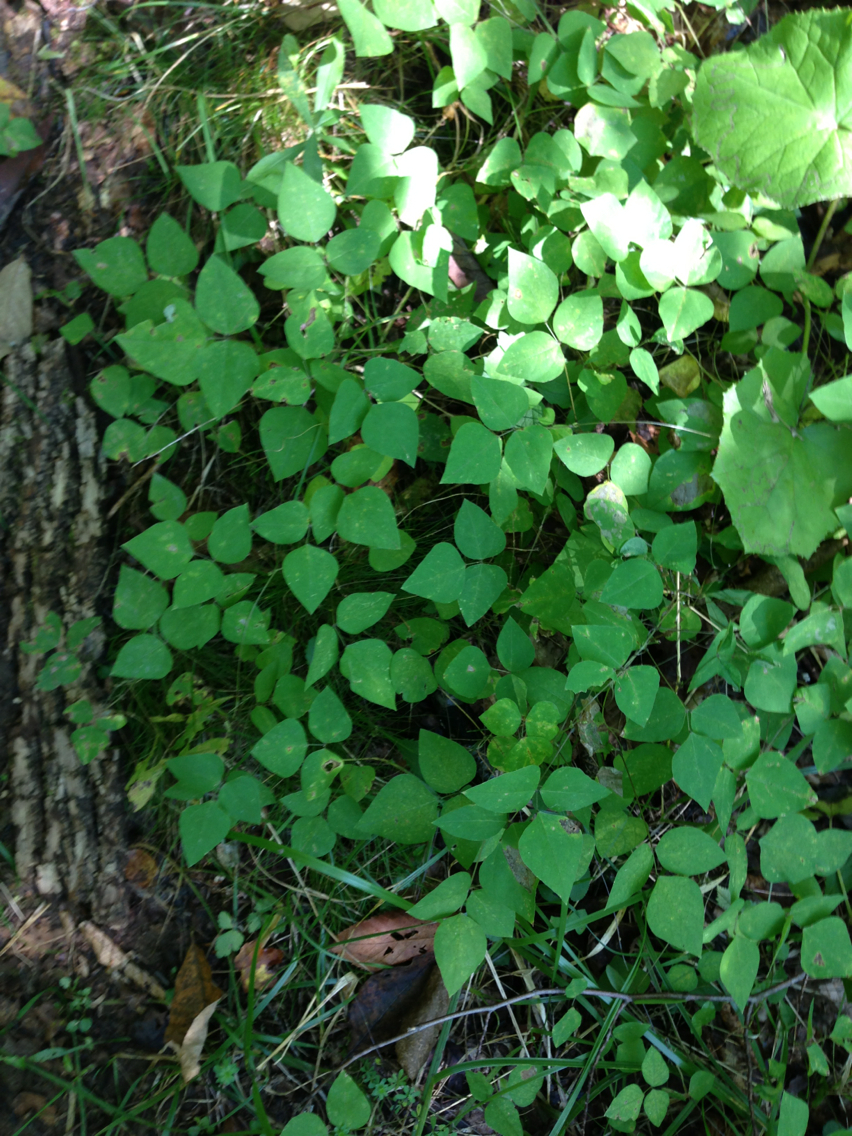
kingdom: Plantae
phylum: Tracheophyta
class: Magnoliopsida
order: Fabales
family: Fabaceae
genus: Amphicarpaea
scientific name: Amphicarpaea bracteata
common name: American hog peanut
